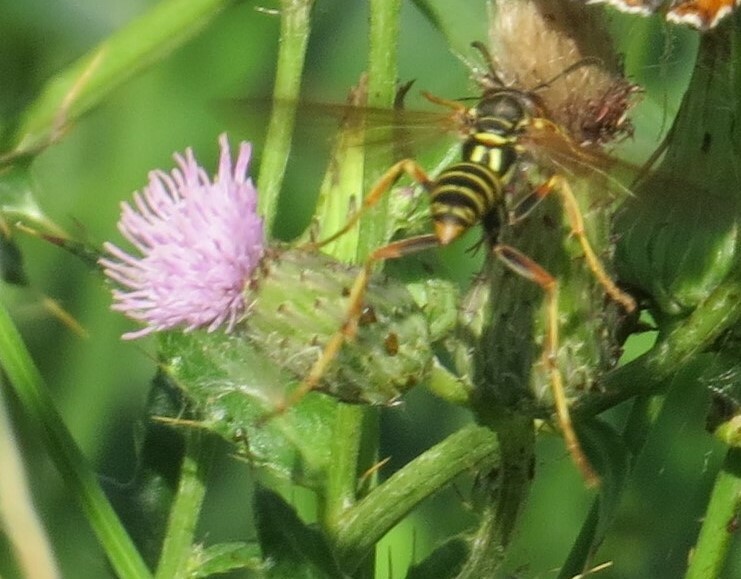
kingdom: Animalia
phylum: Arthropoda
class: Insecta
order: Hymenoptera
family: Eumenidae
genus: Polistes
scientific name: Polistes fuscatus
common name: Dark paper wasp
